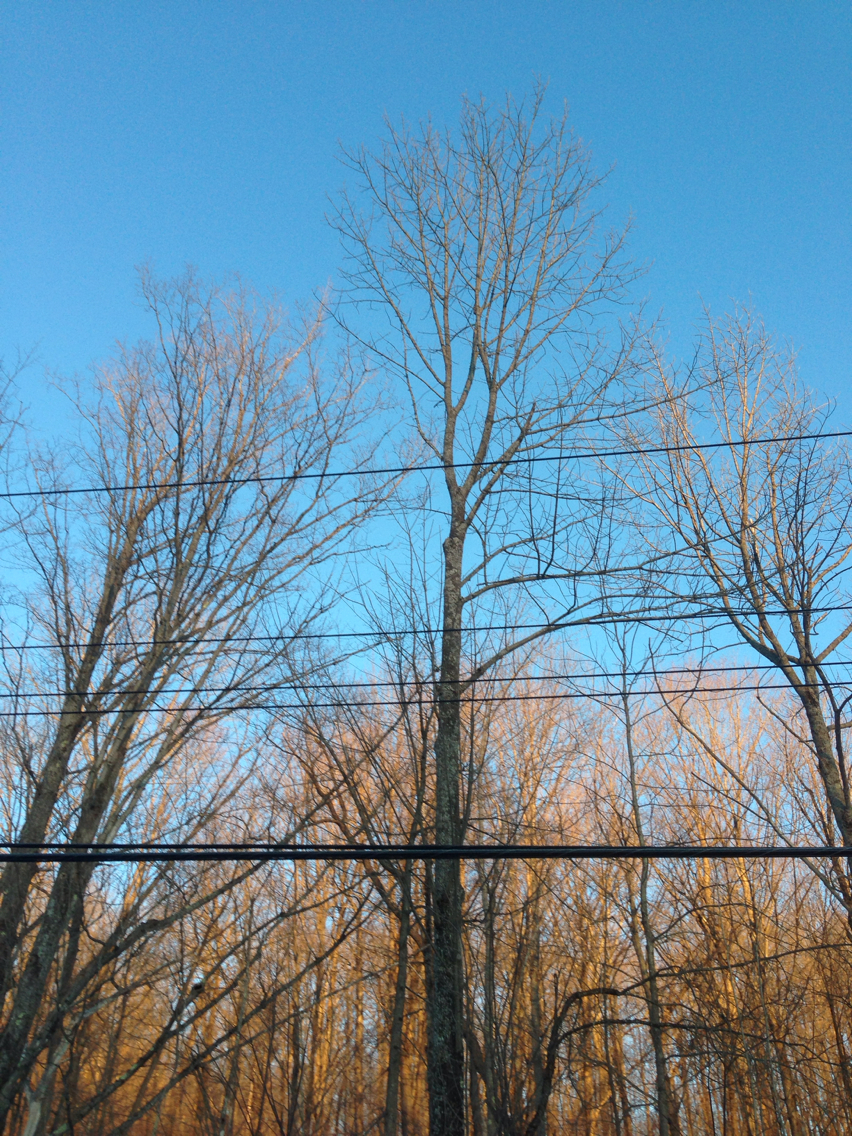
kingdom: Plantae
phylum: Tracheophyta
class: Magnoliopsida
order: Lamiales
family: Oleaceae
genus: Fraxinus
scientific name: Fraxinus americana
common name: White ash
